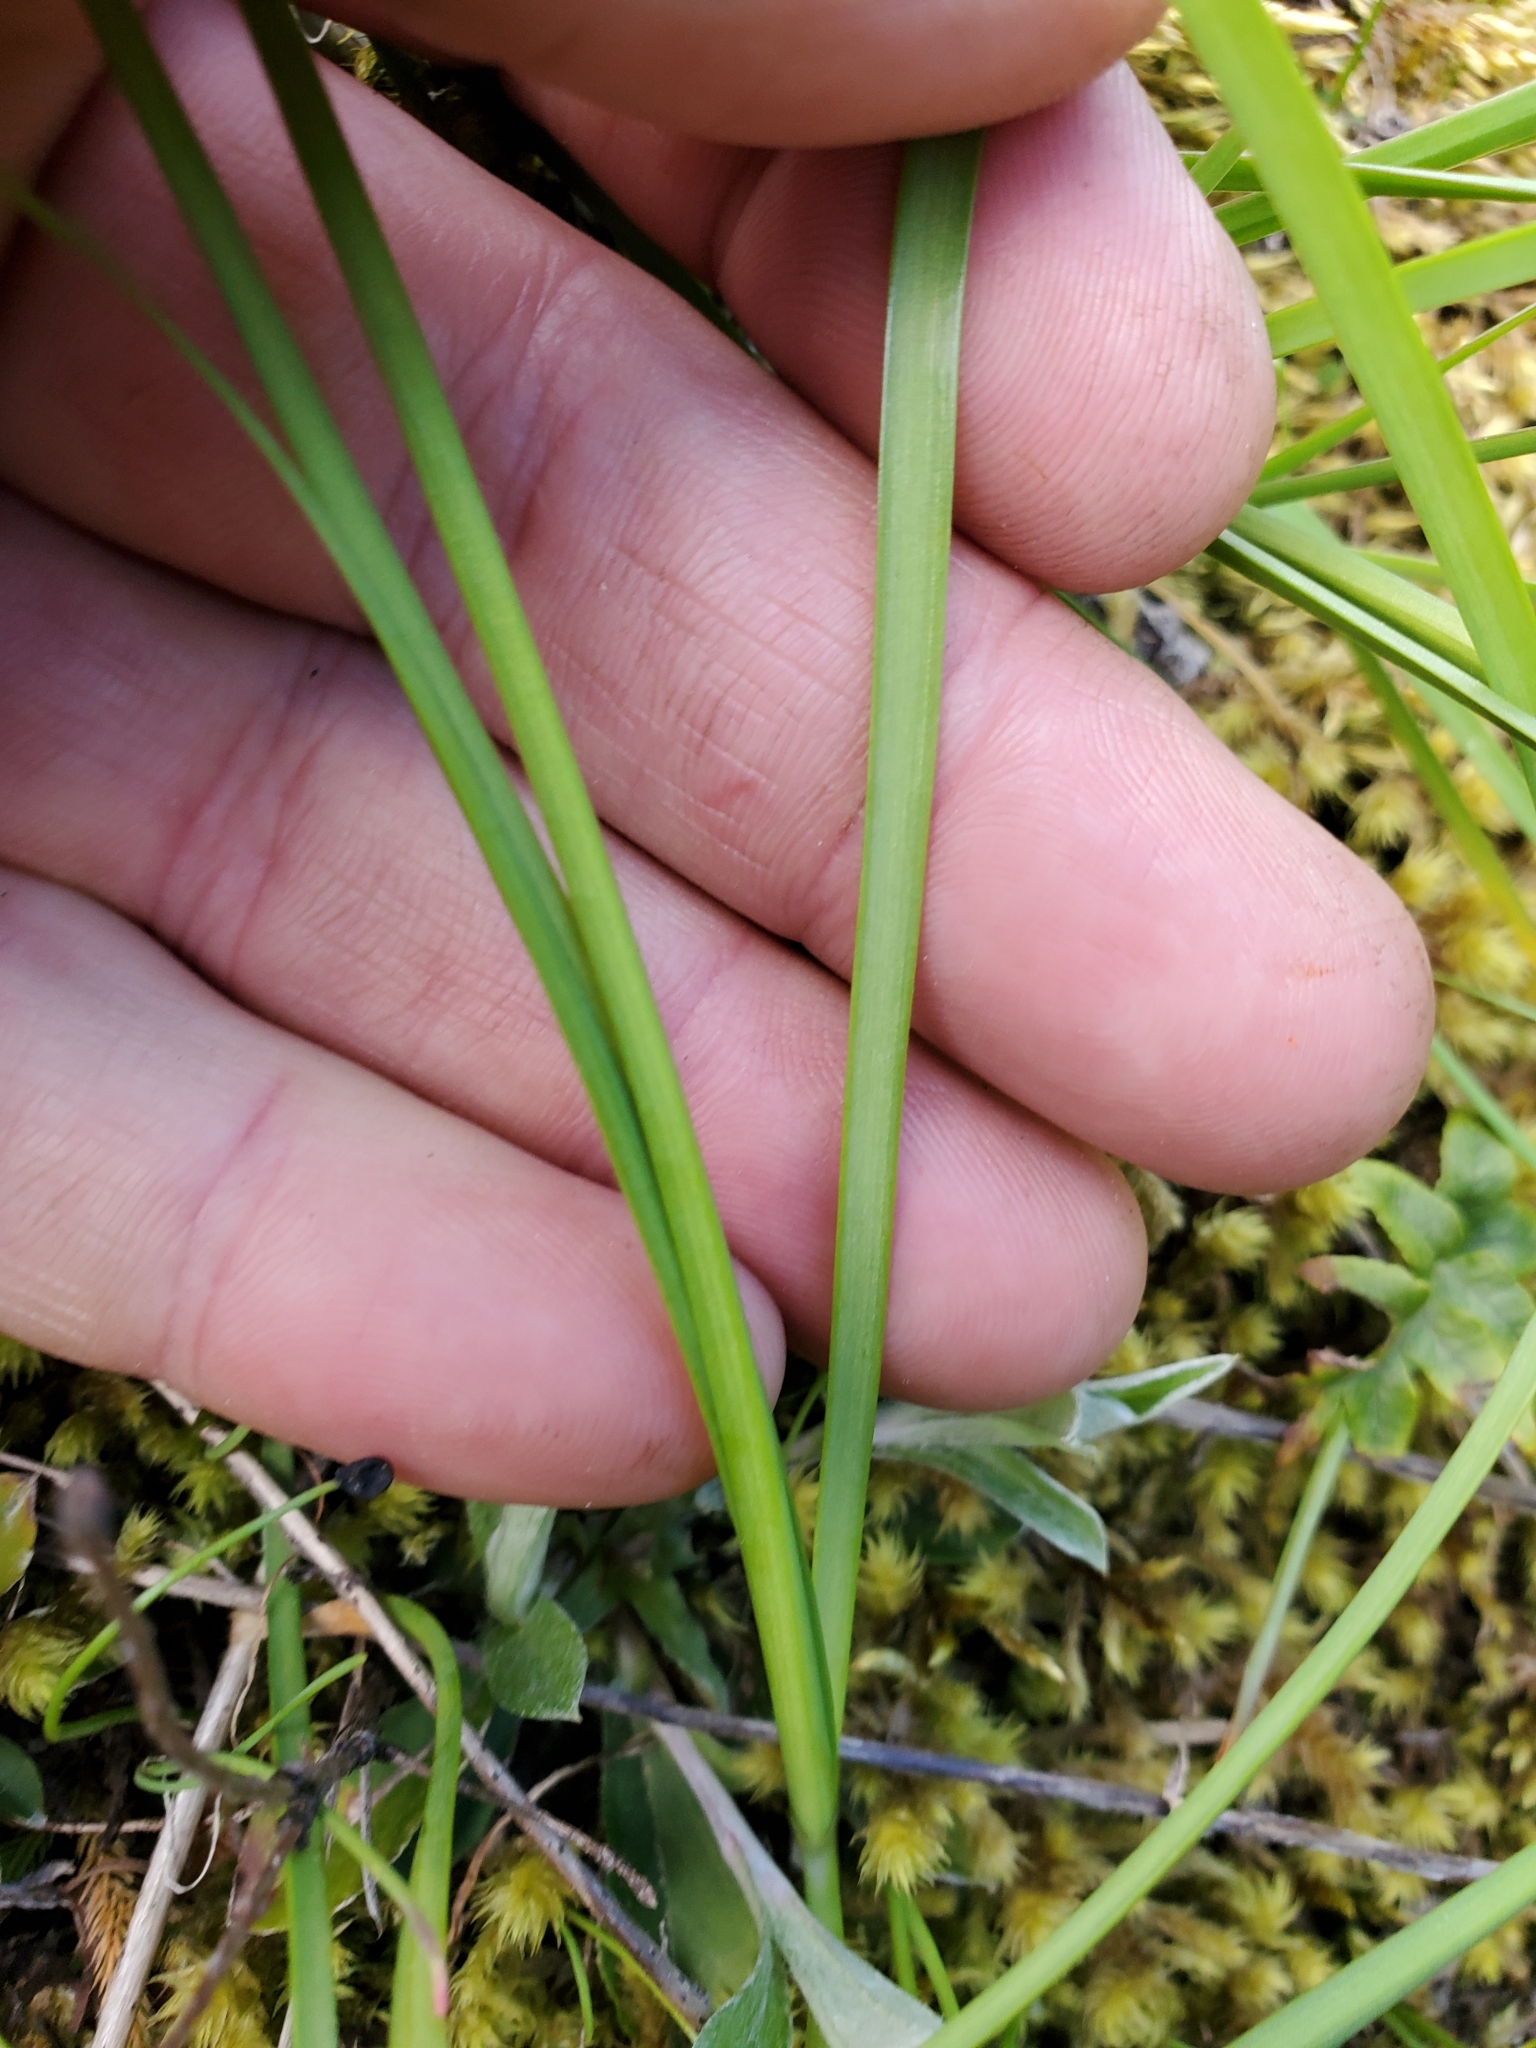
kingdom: Plantae
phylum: Tracheophyta
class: Liliopsida
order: Asparagales
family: Amaryllidaceae
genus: Allium
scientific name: Allium cernuum
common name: Nodding onion
